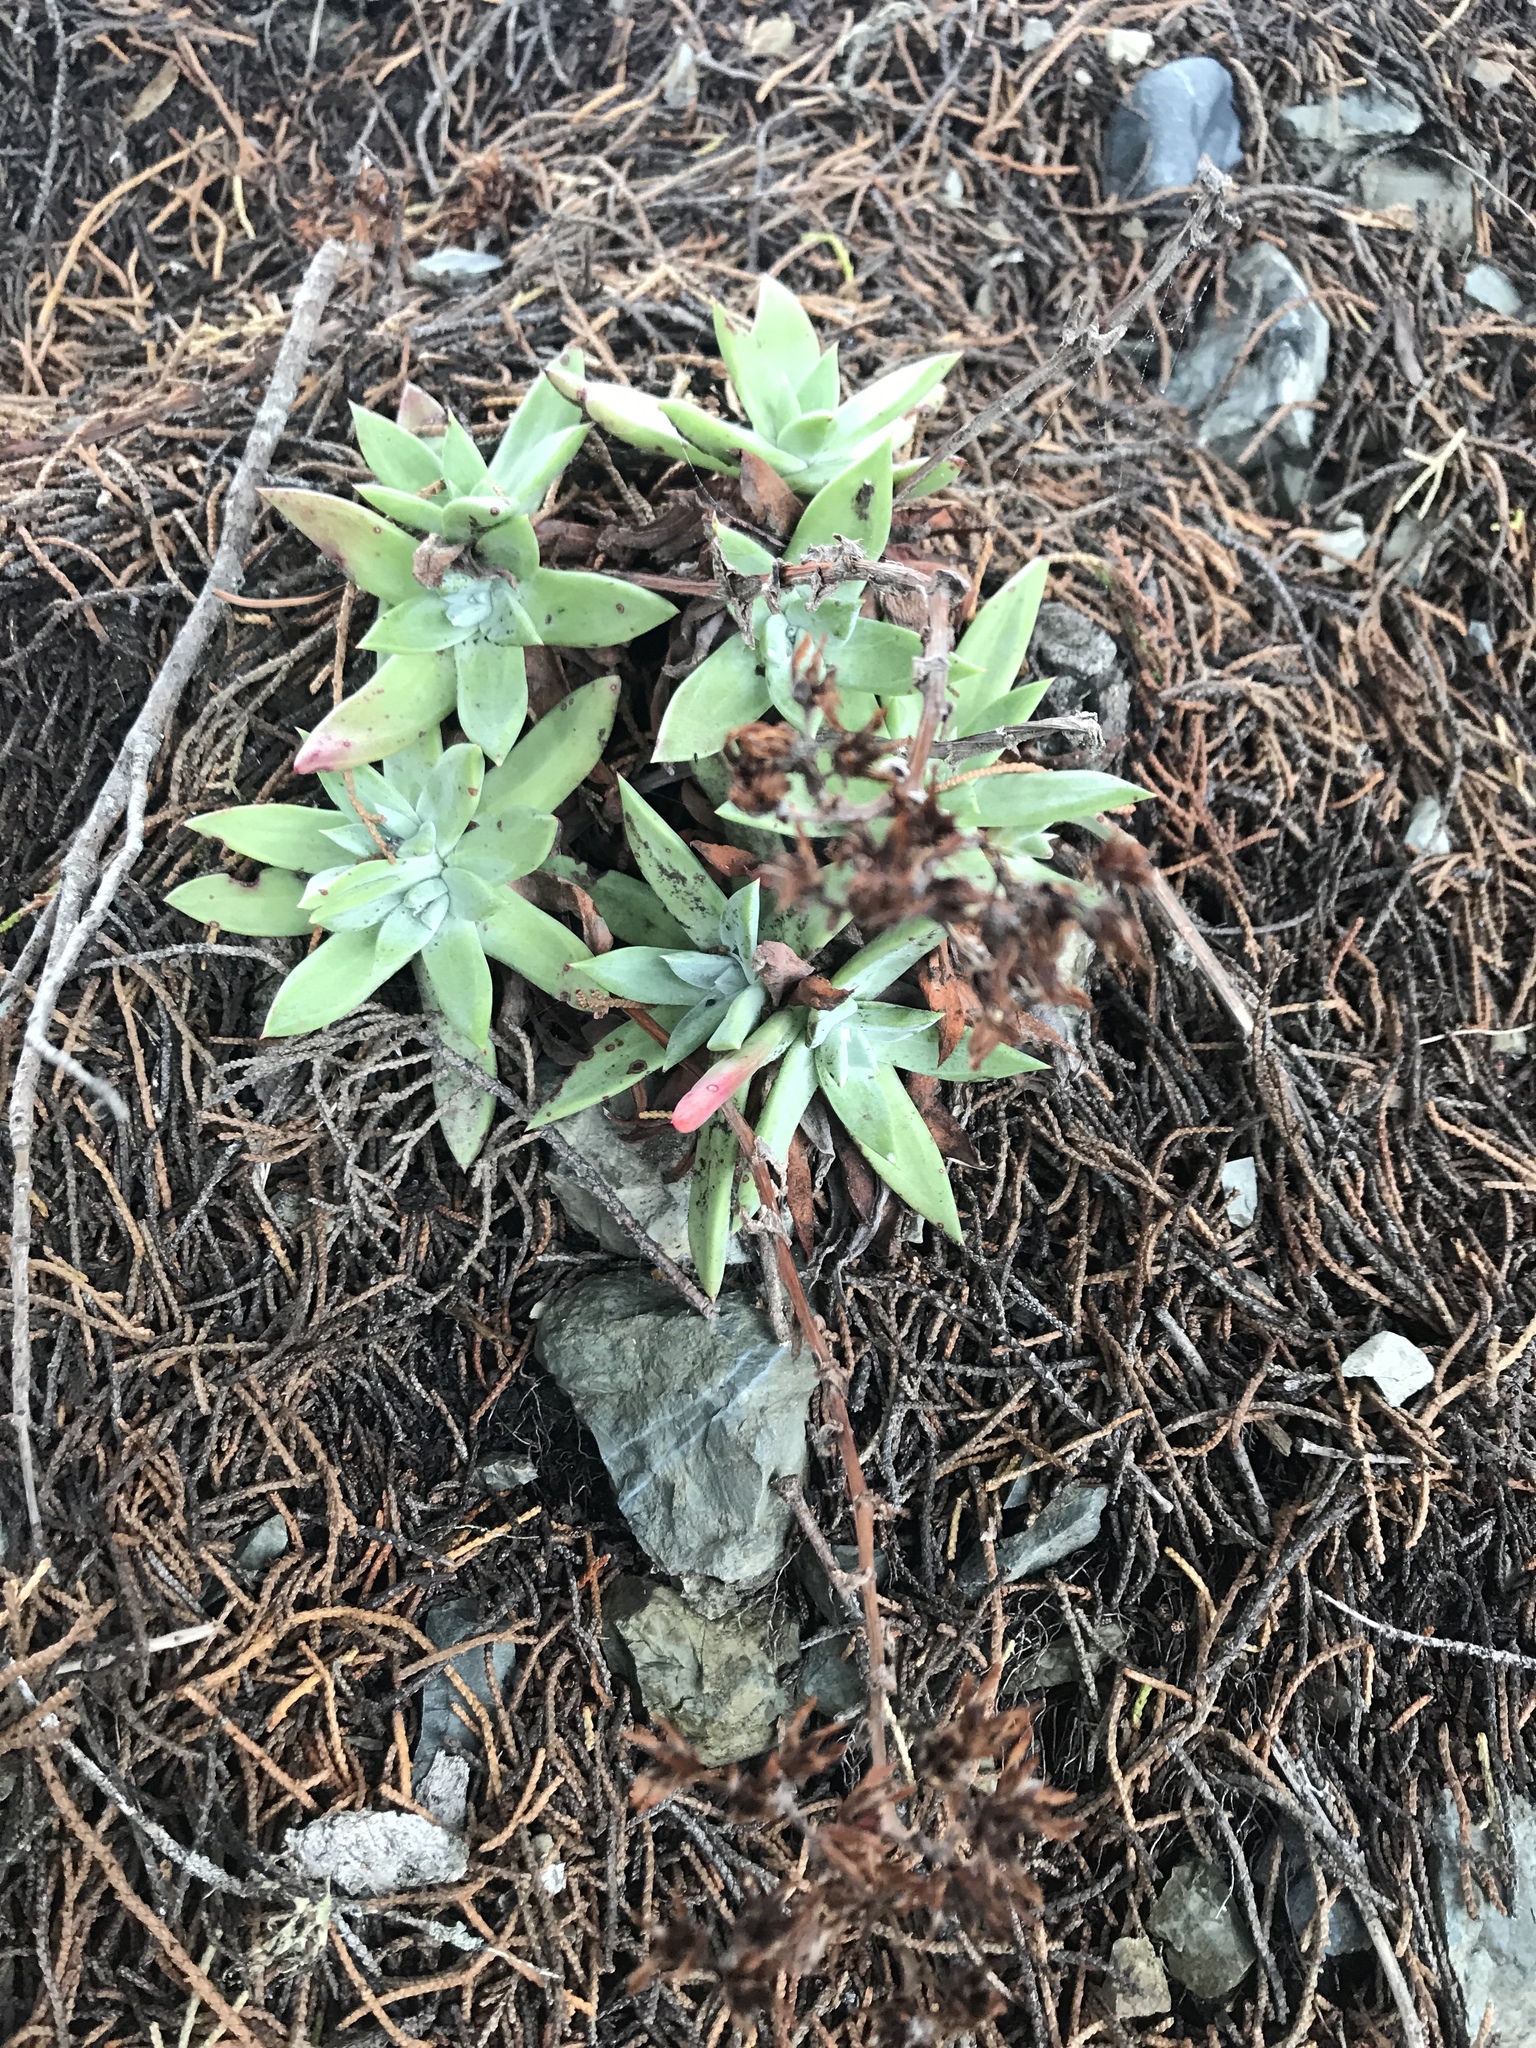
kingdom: Plantae
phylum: Tracheophyta
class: Magnoliopsida
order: Saxifragales
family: Crassulaceae
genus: Dudleya
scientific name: Dudleya farinosa
